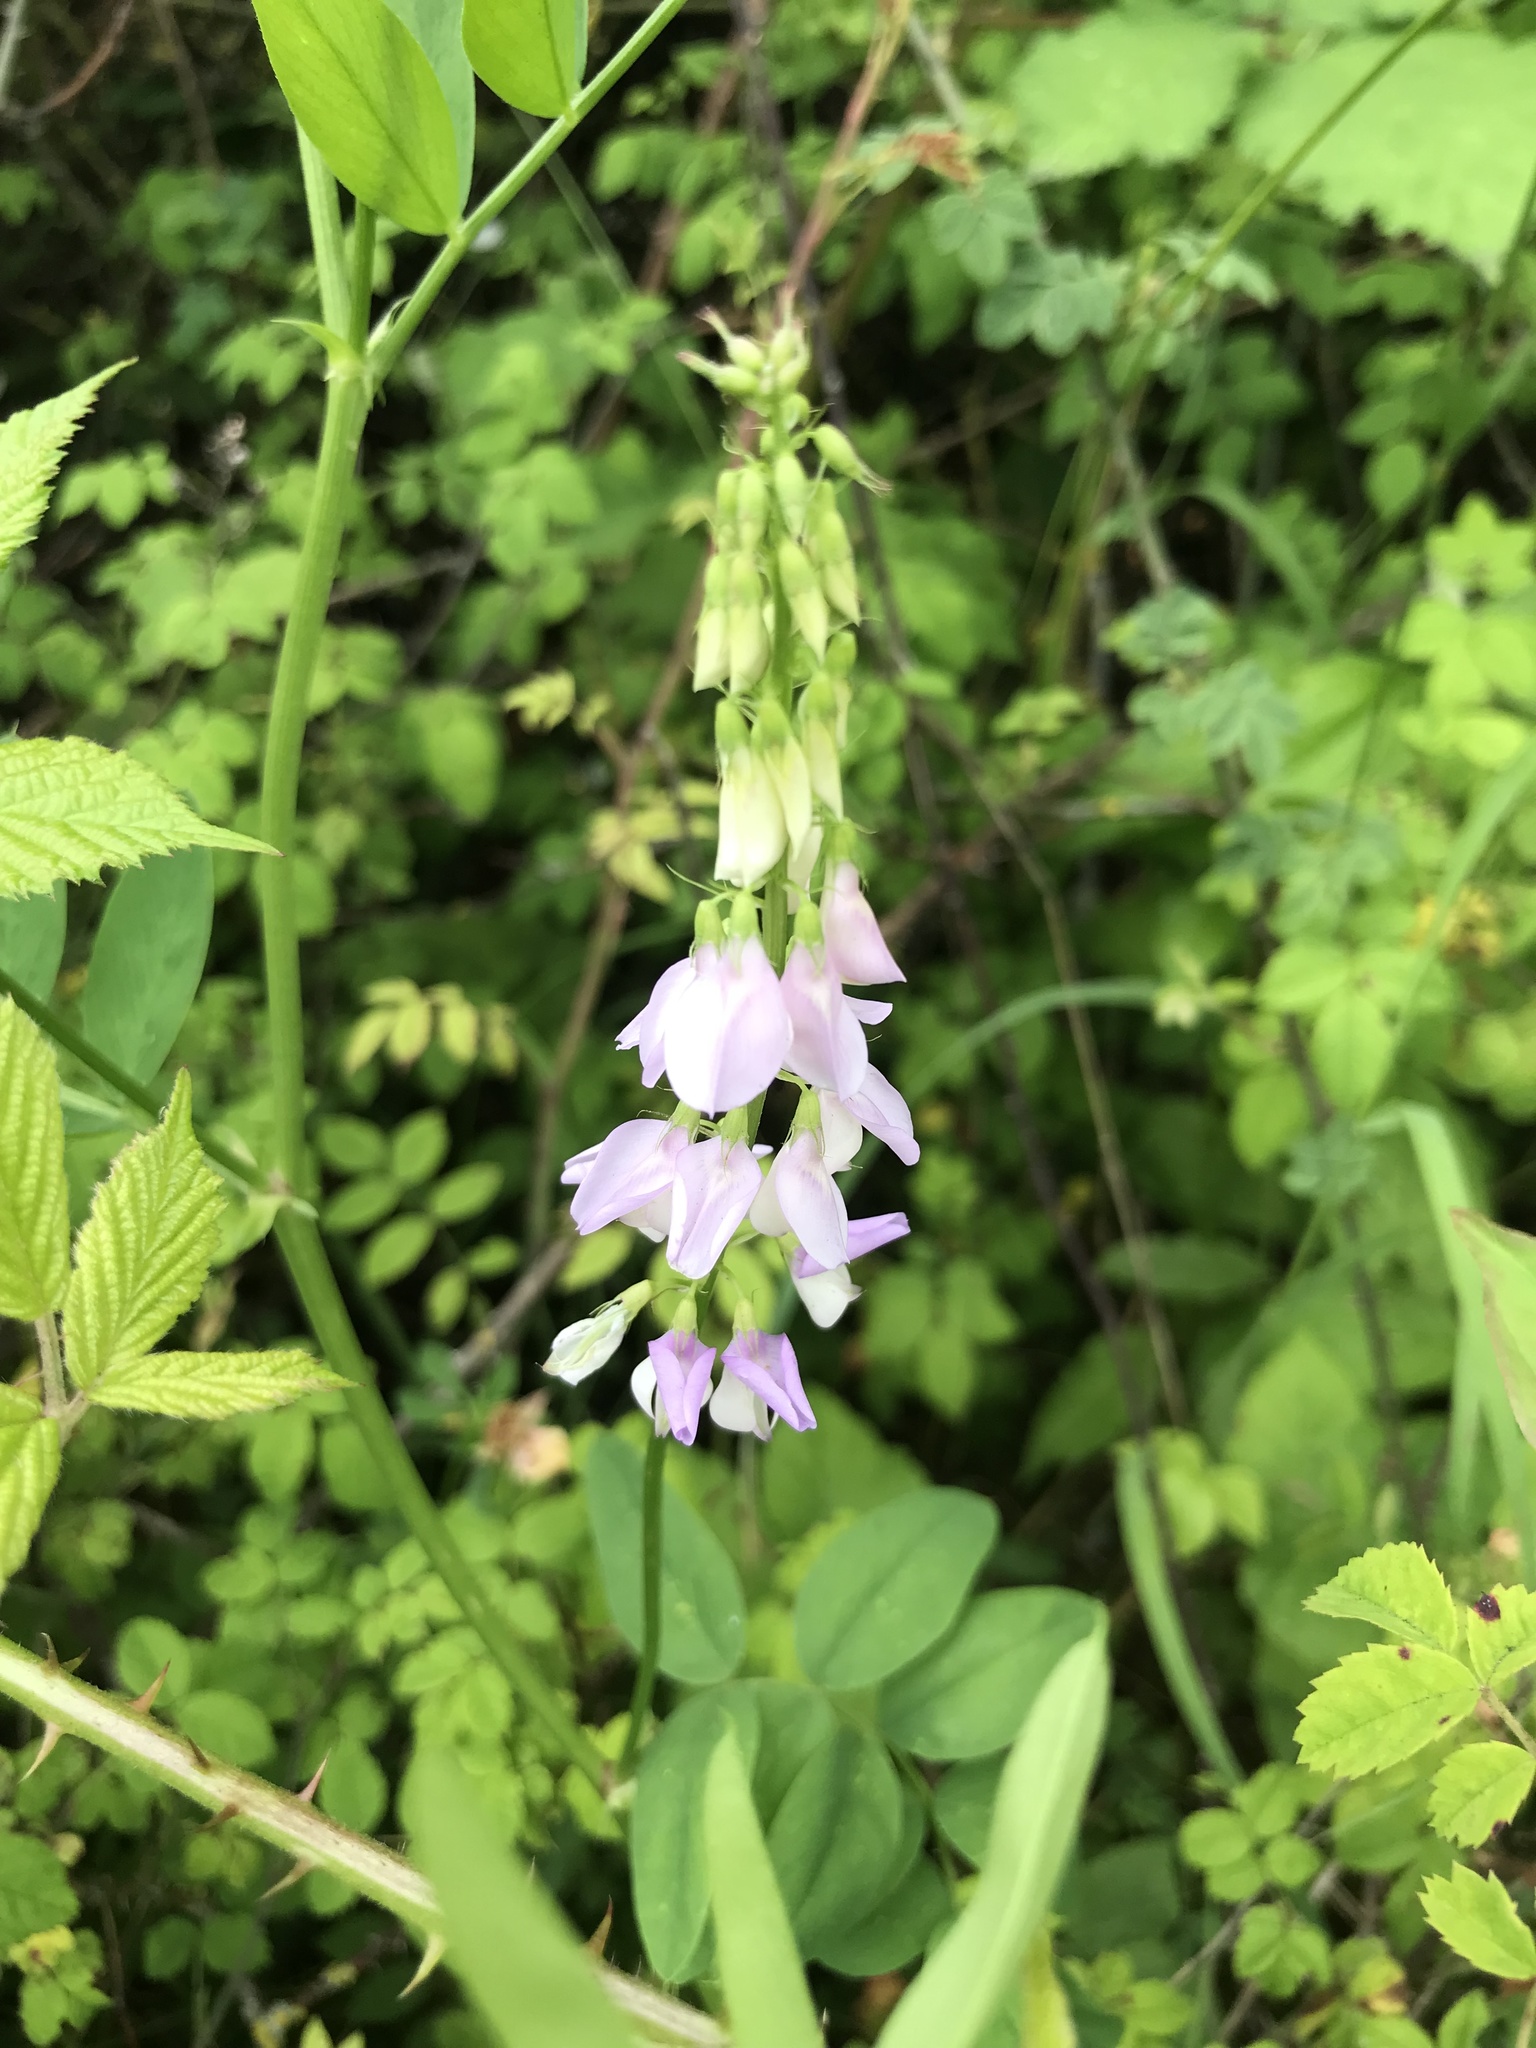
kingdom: Plantae
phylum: Tracheophyta
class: Magnoliopsida
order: Fabales
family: Fabaceae
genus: Galega
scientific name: Galega officinalis
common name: Goat's-rue
